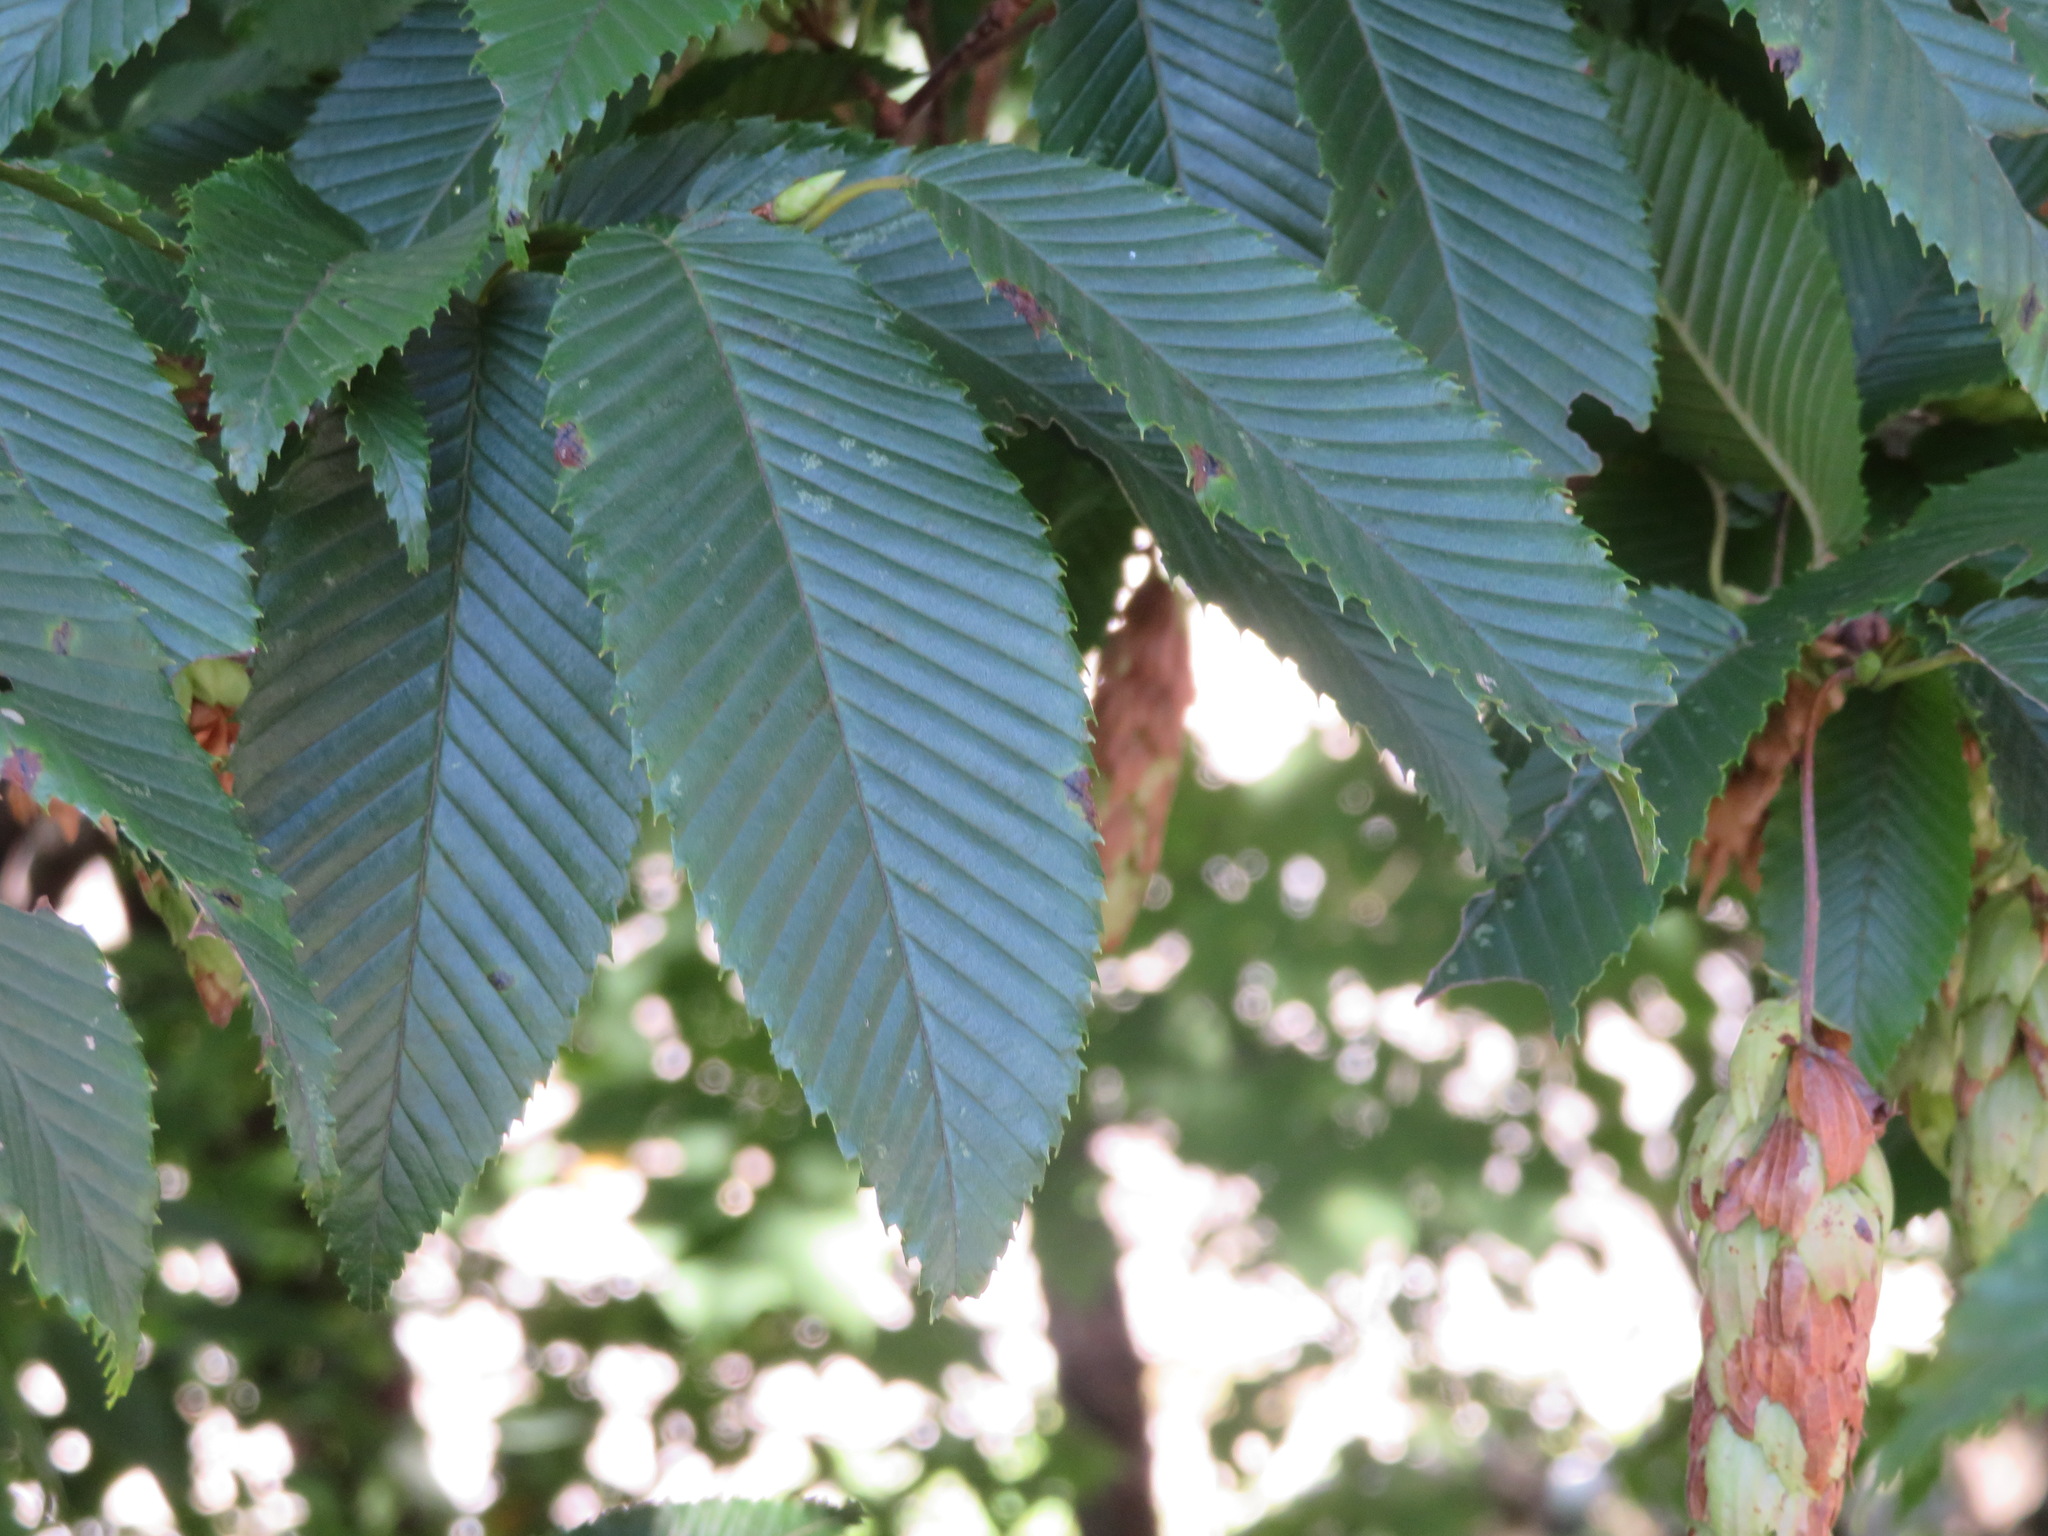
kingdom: Plantae
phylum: Tracheophyta
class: Magnoliopsida
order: Fagales
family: Betulaceae
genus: Carpinus
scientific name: Carpinus japonica
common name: Japanese hornbeam
